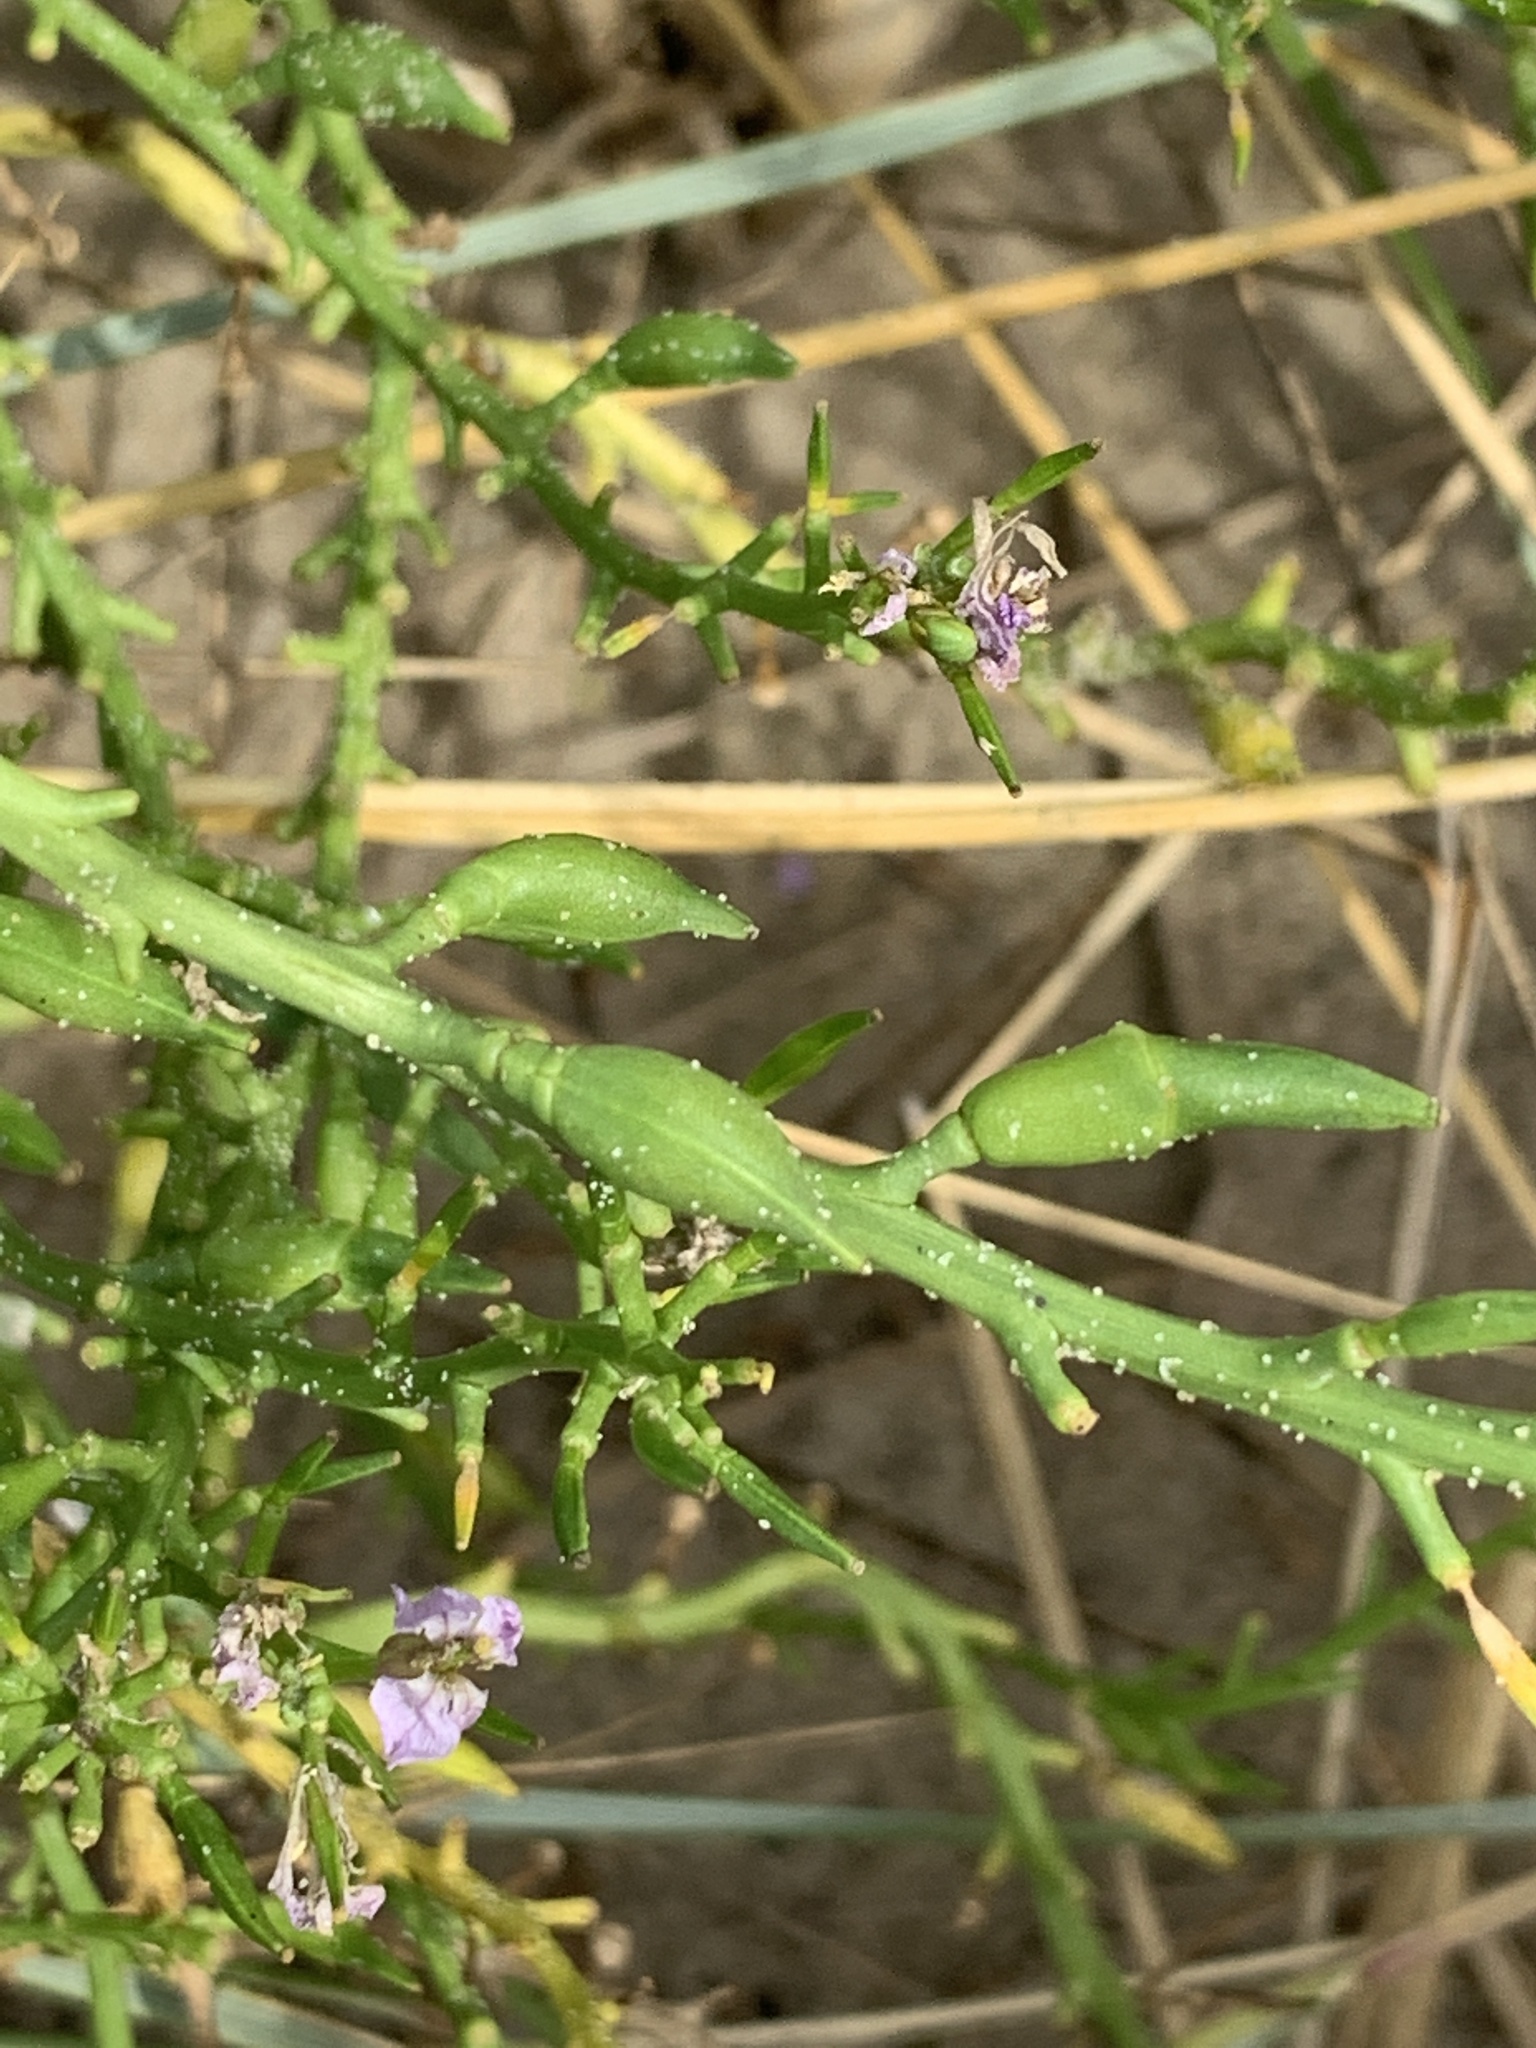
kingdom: Plantae
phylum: Tracheophyta
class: Magnoliopsida
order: Brassicales
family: Brassicaceae
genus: Cakile
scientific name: Cakile maritima
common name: Sea rocket
